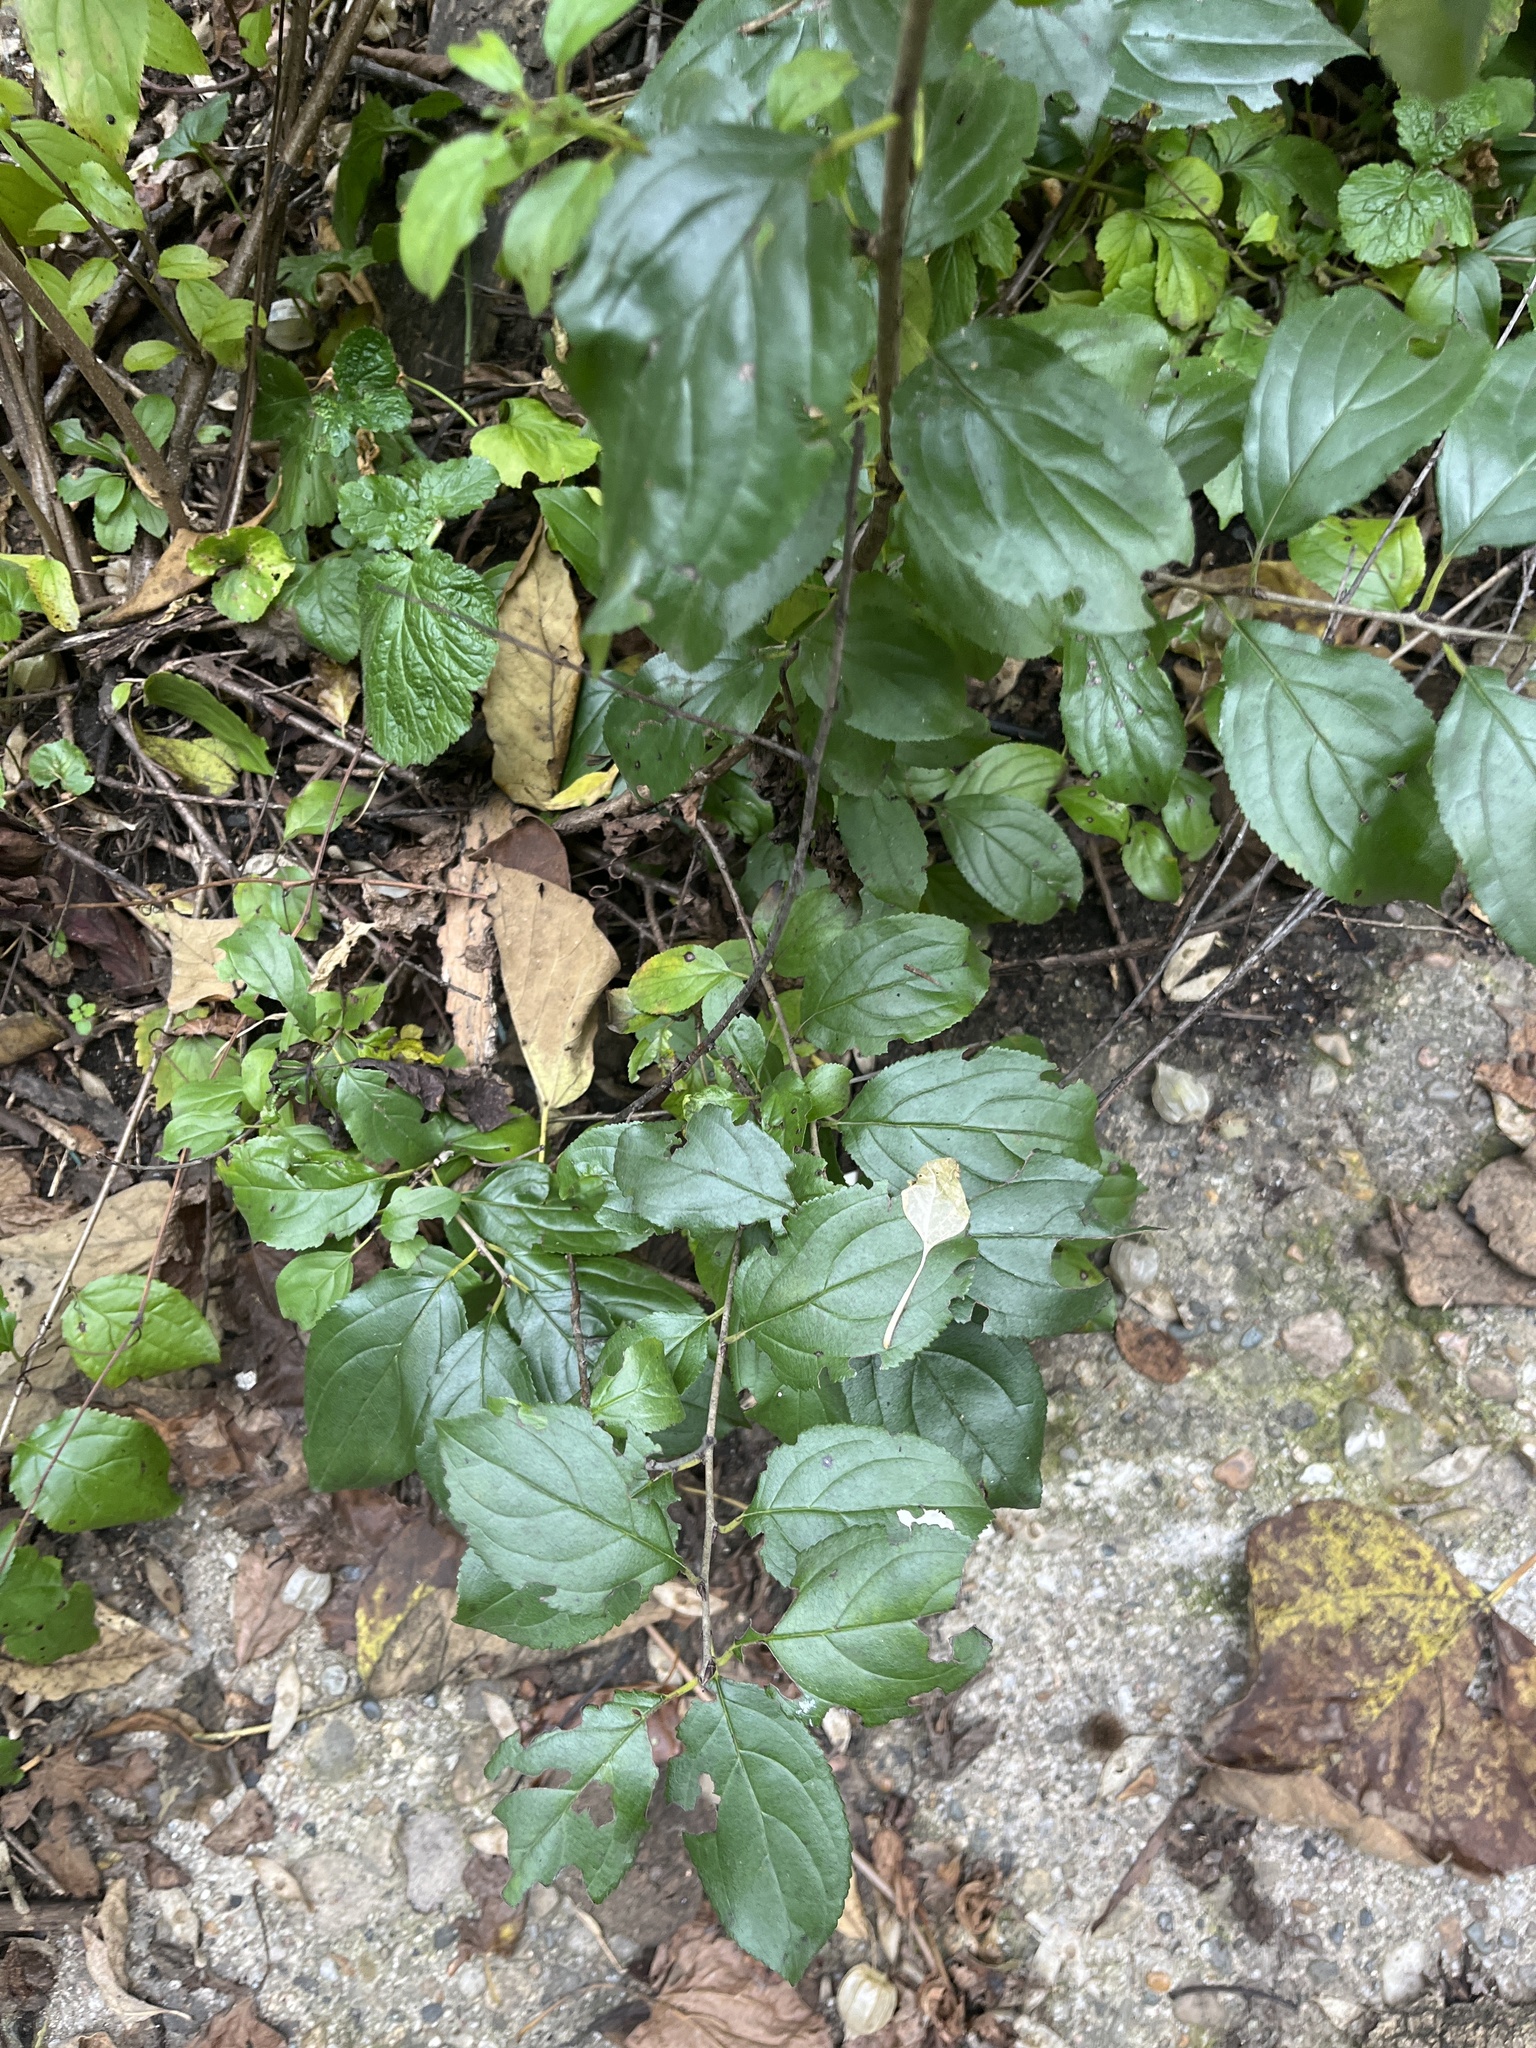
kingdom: Plantae
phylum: Tracheophyta
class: Magnoliopsida
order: Rosales
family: Rhamnaceae
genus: Rhamnus
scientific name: Rhamnus cathartica
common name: Common buckthorn
